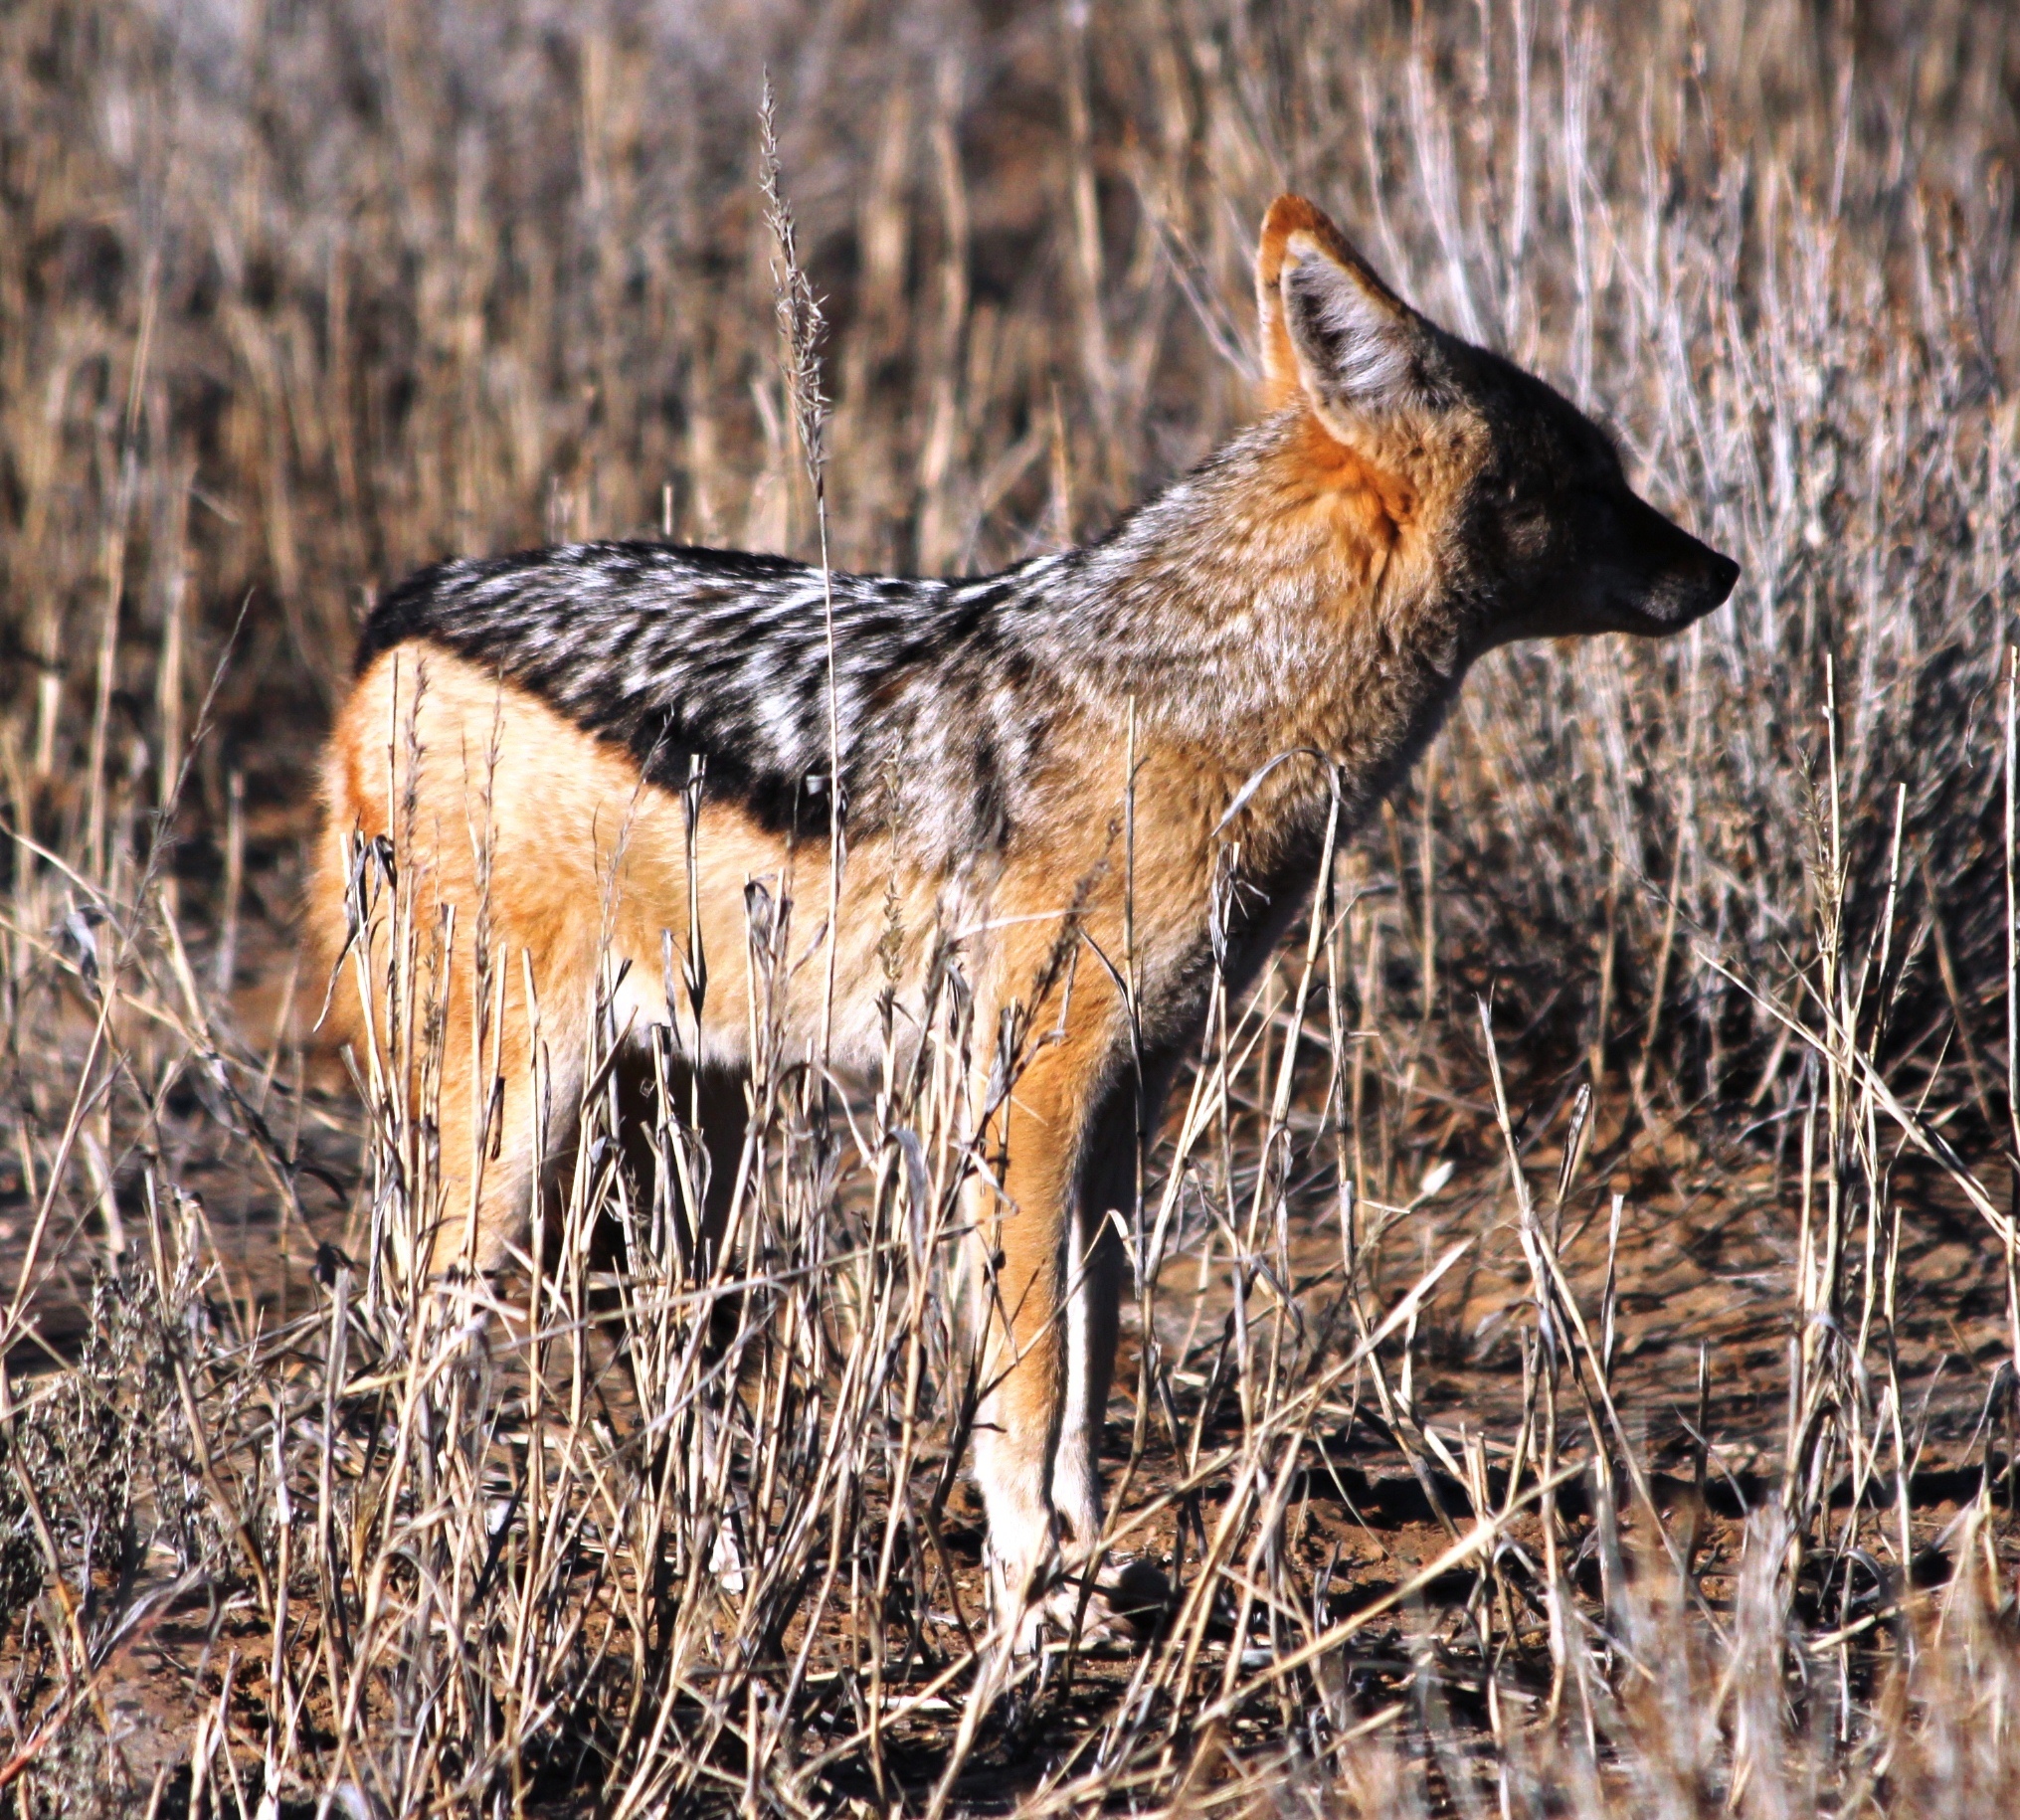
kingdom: Animalia
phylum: Chordata
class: Mammalia
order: Carnivora
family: Canidae
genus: Lupulella
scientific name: Lupulella
